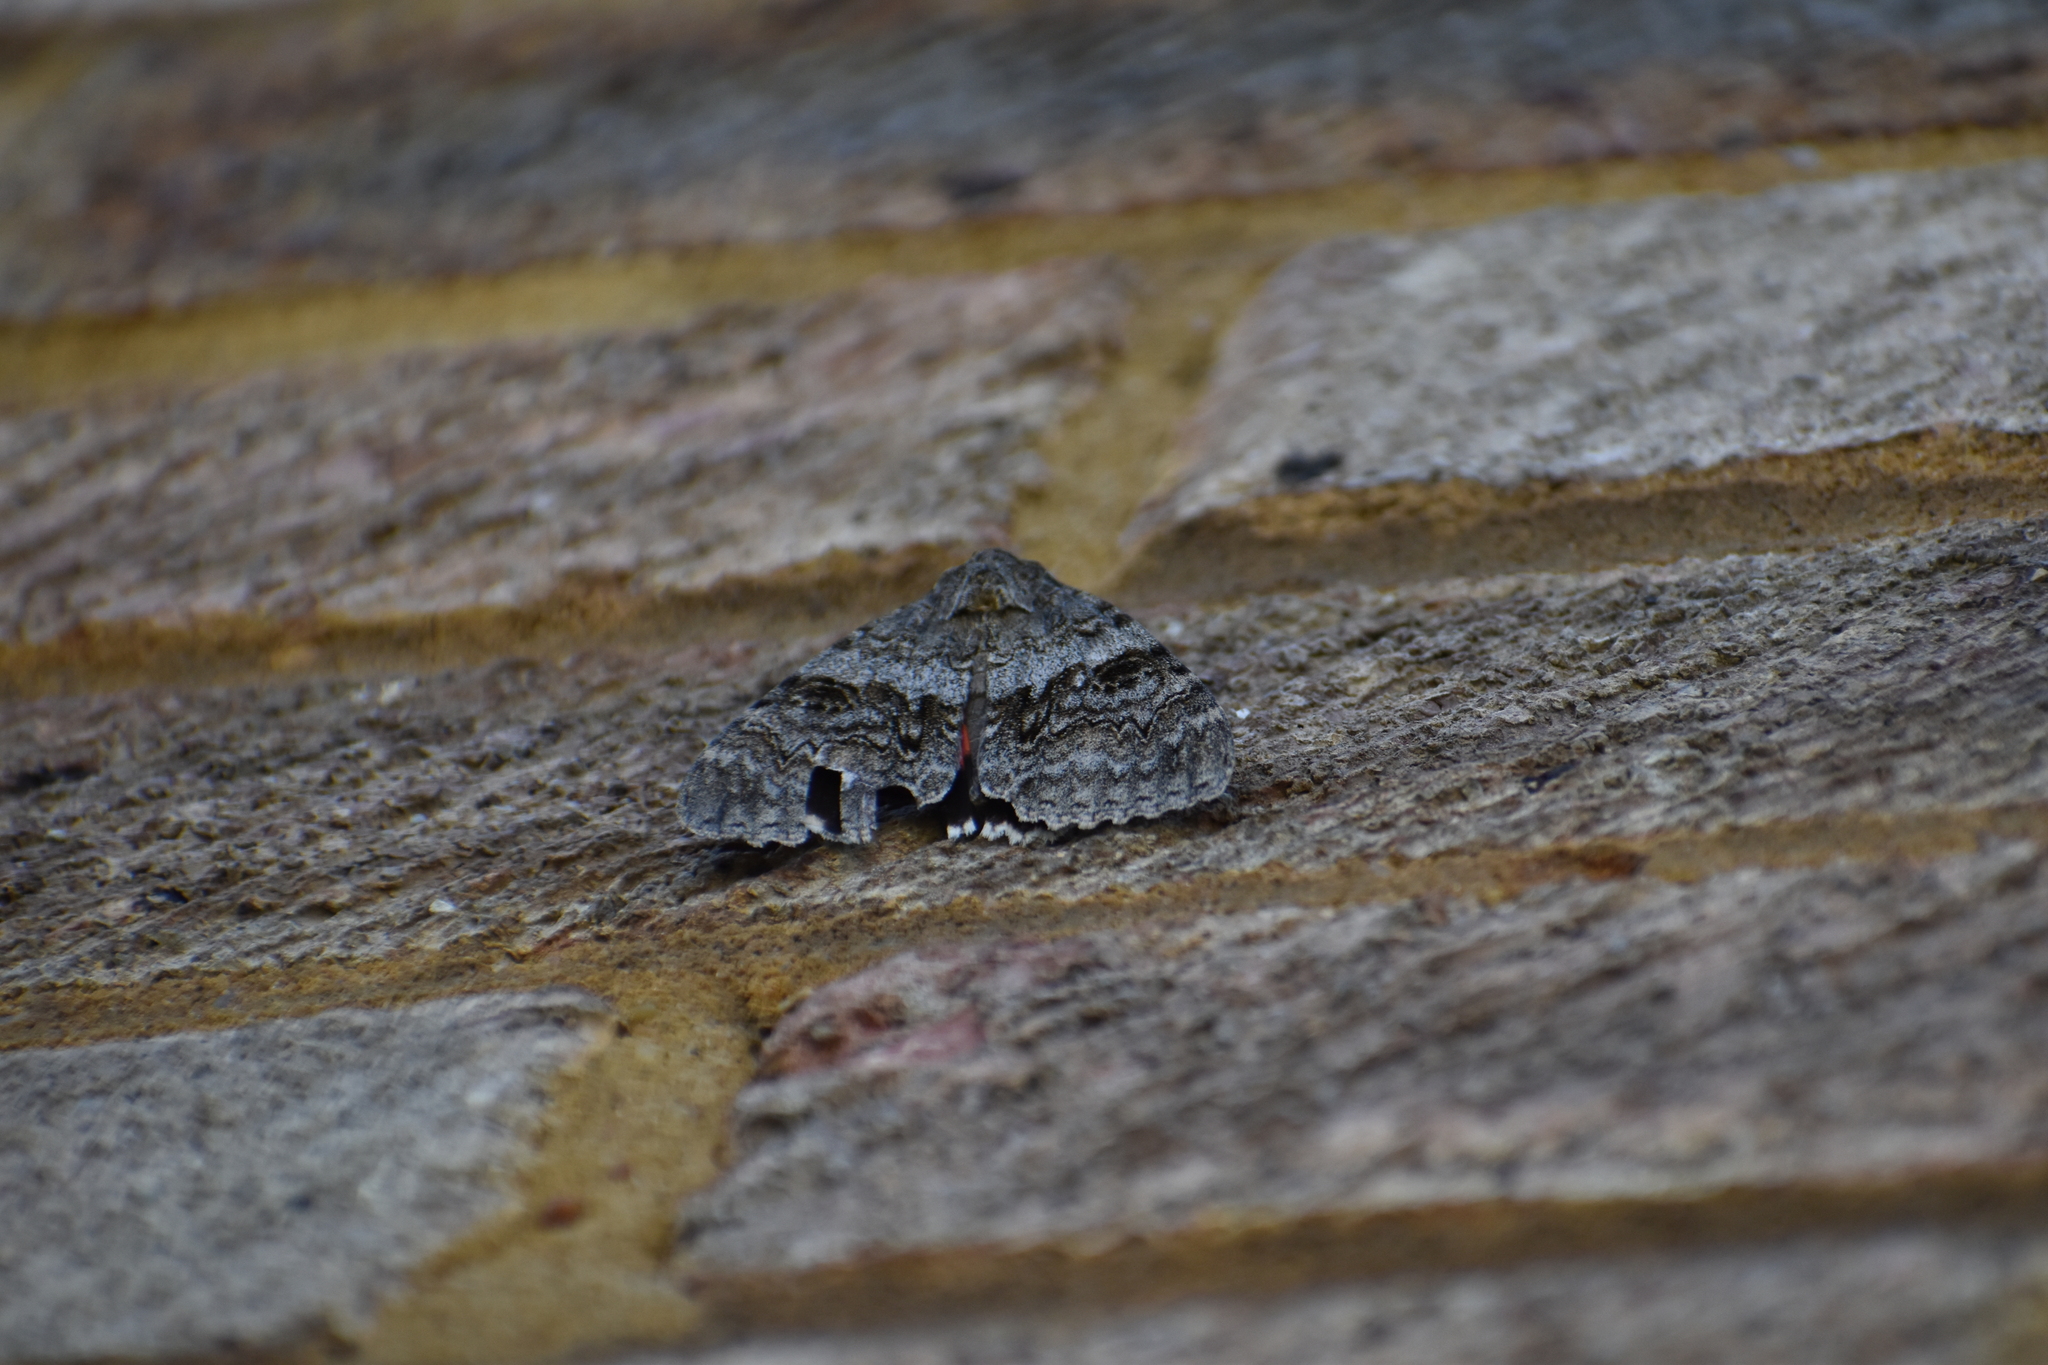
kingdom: Animalia
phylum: Arthropoda
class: Insecta
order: Lepidoptera
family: Erebidae
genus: Catocala
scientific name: Catocala nupta
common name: Red underwing
